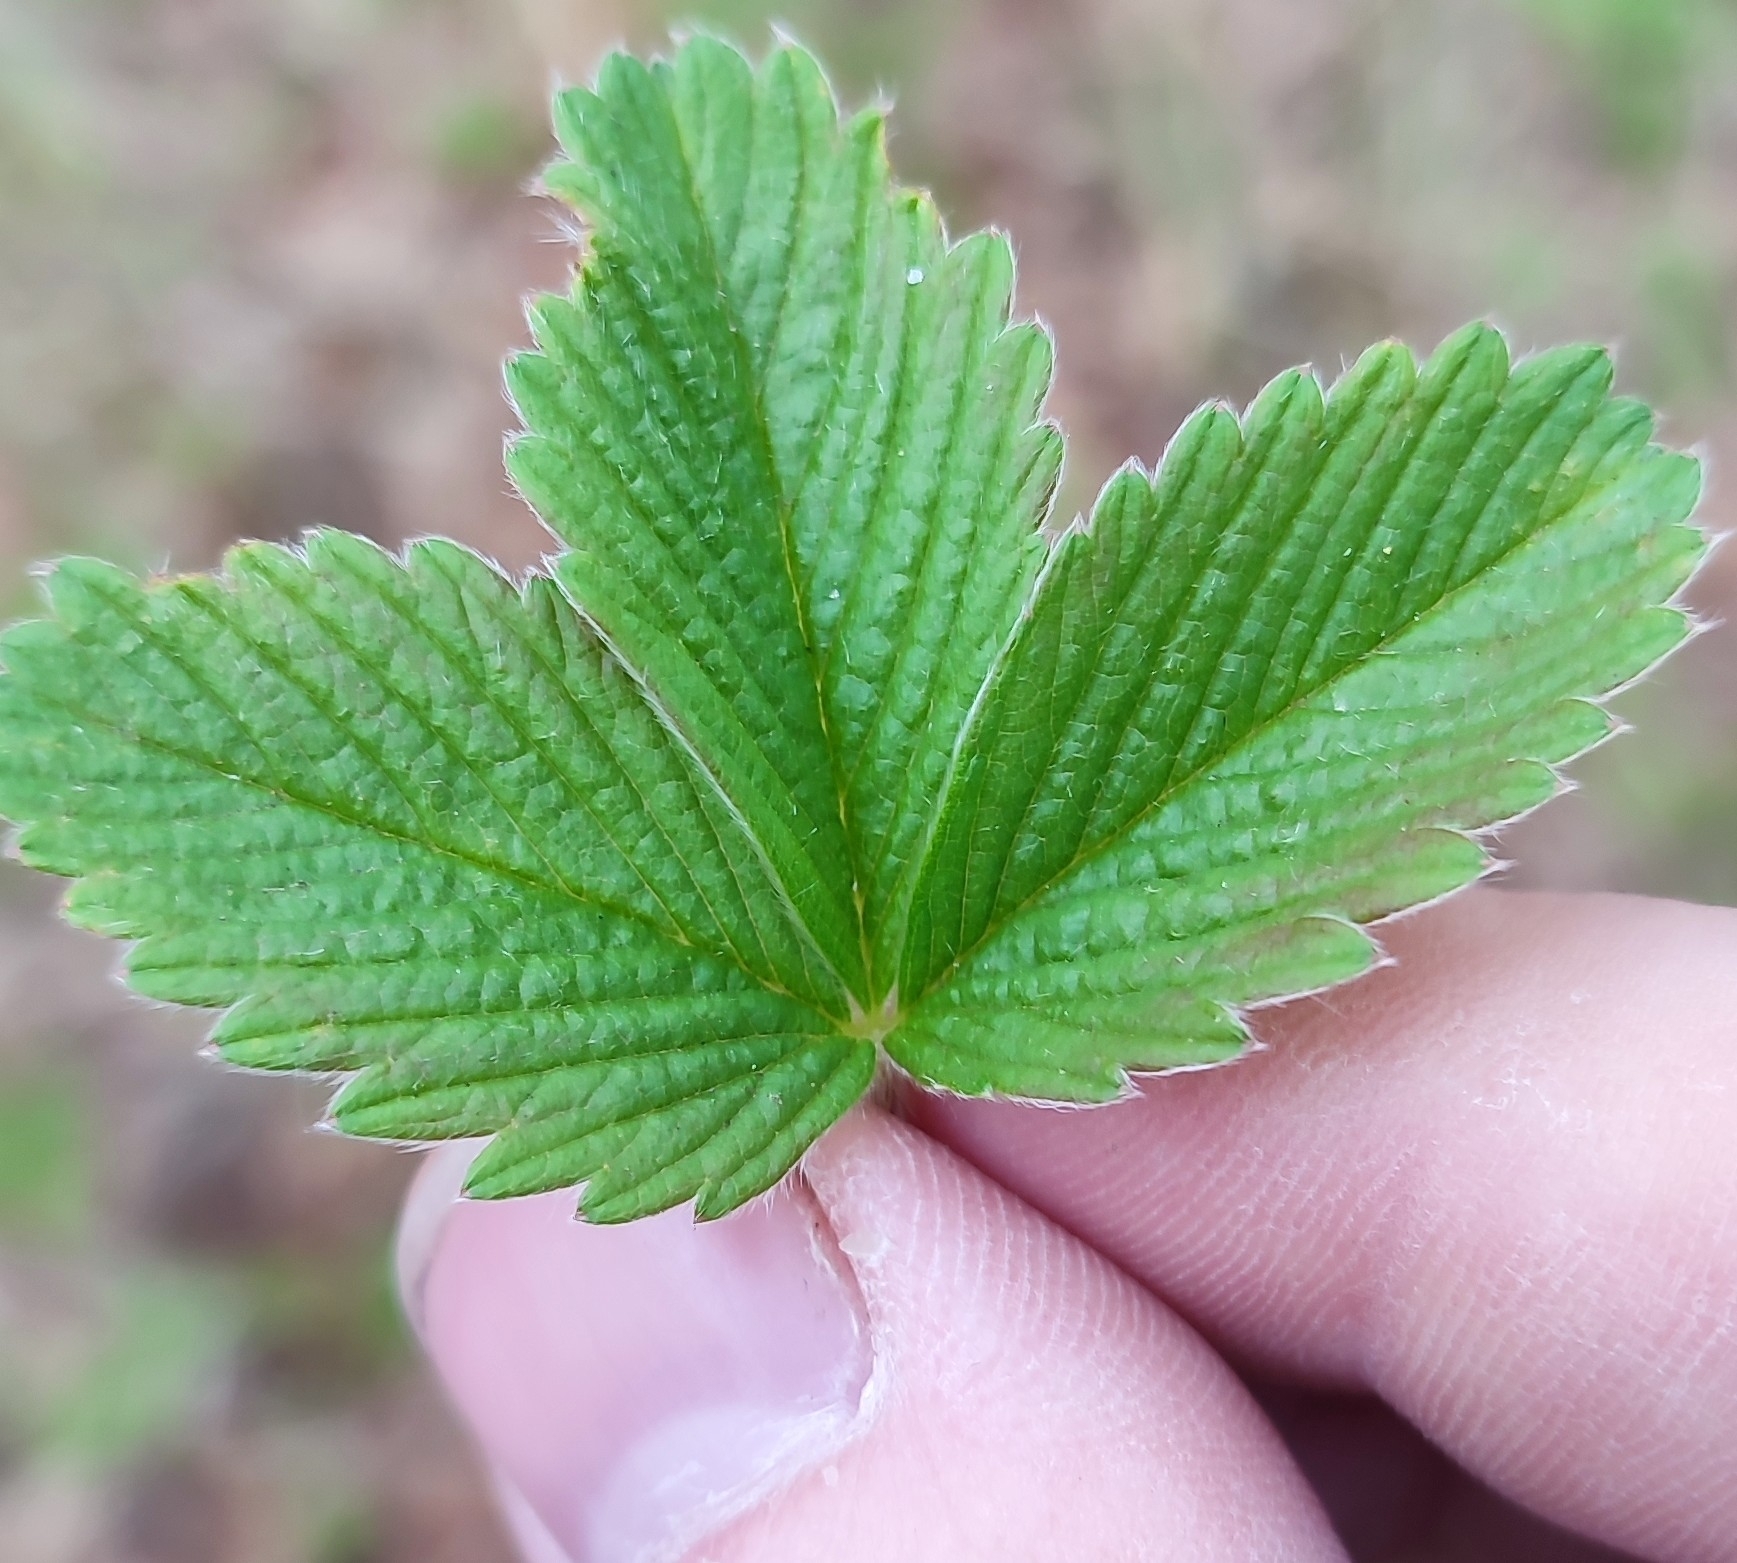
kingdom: Plantae
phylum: Tracheophyta
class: Magnoliopsida
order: Rosales
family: Rosaceae
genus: Fragaria
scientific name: Fragaria viridis
